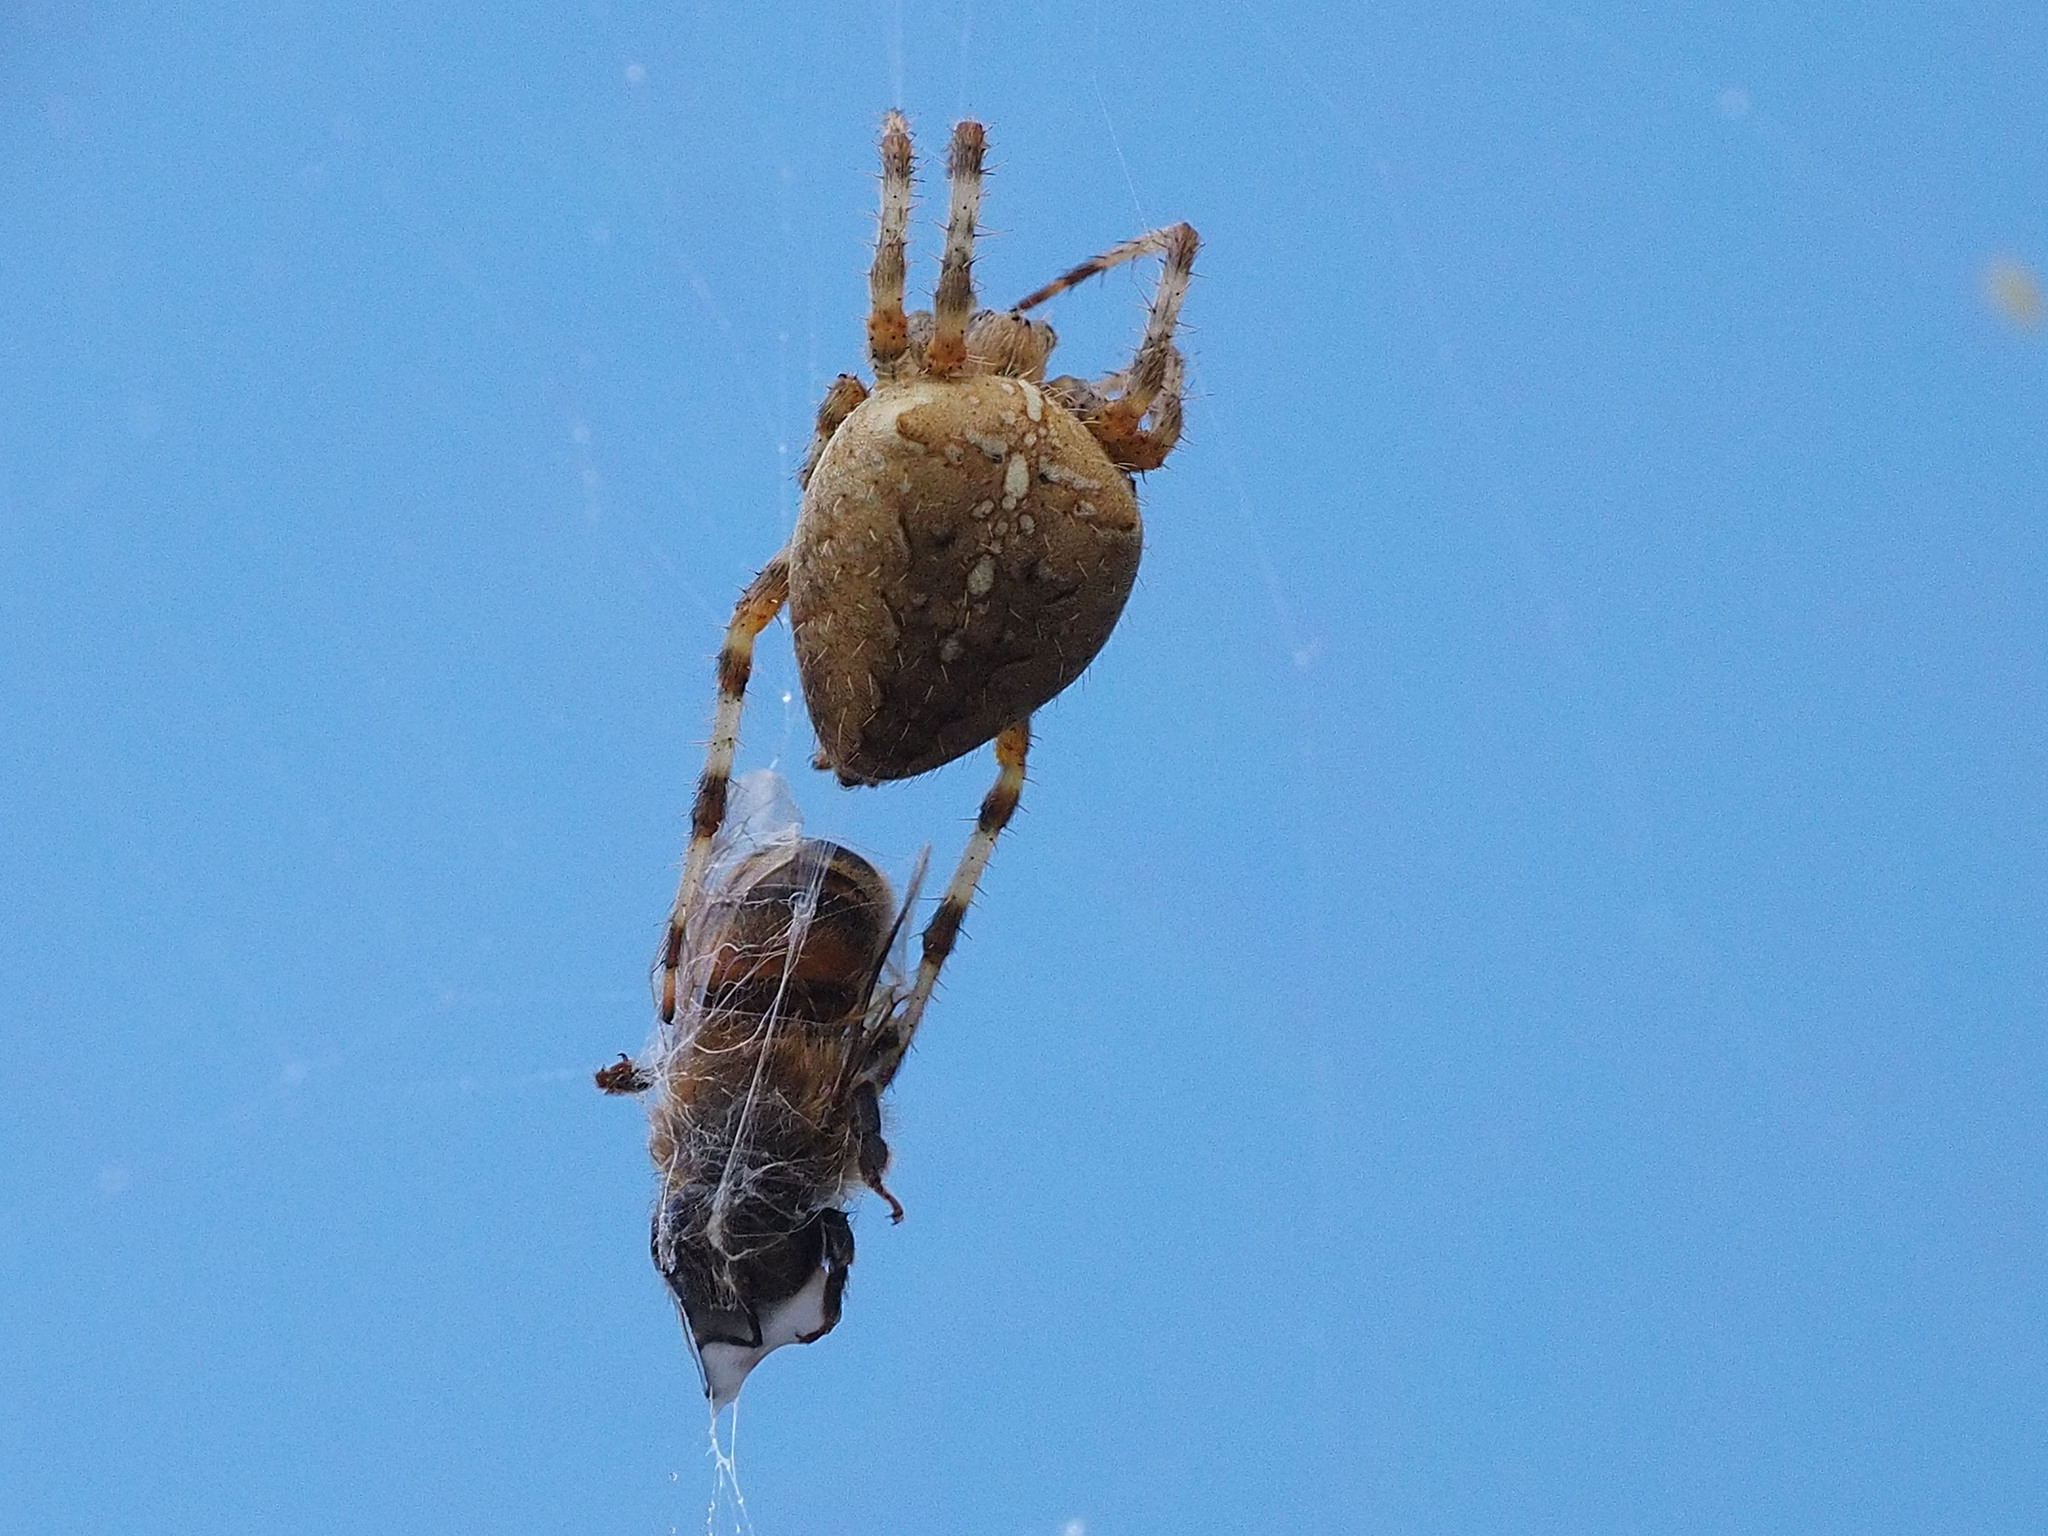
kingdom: Animalia
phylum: Arthropoda
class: Arachnida
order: Araneae
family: Araneidae
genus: Araneus
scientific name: Araneus diadematus
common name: Cross orbweaver
